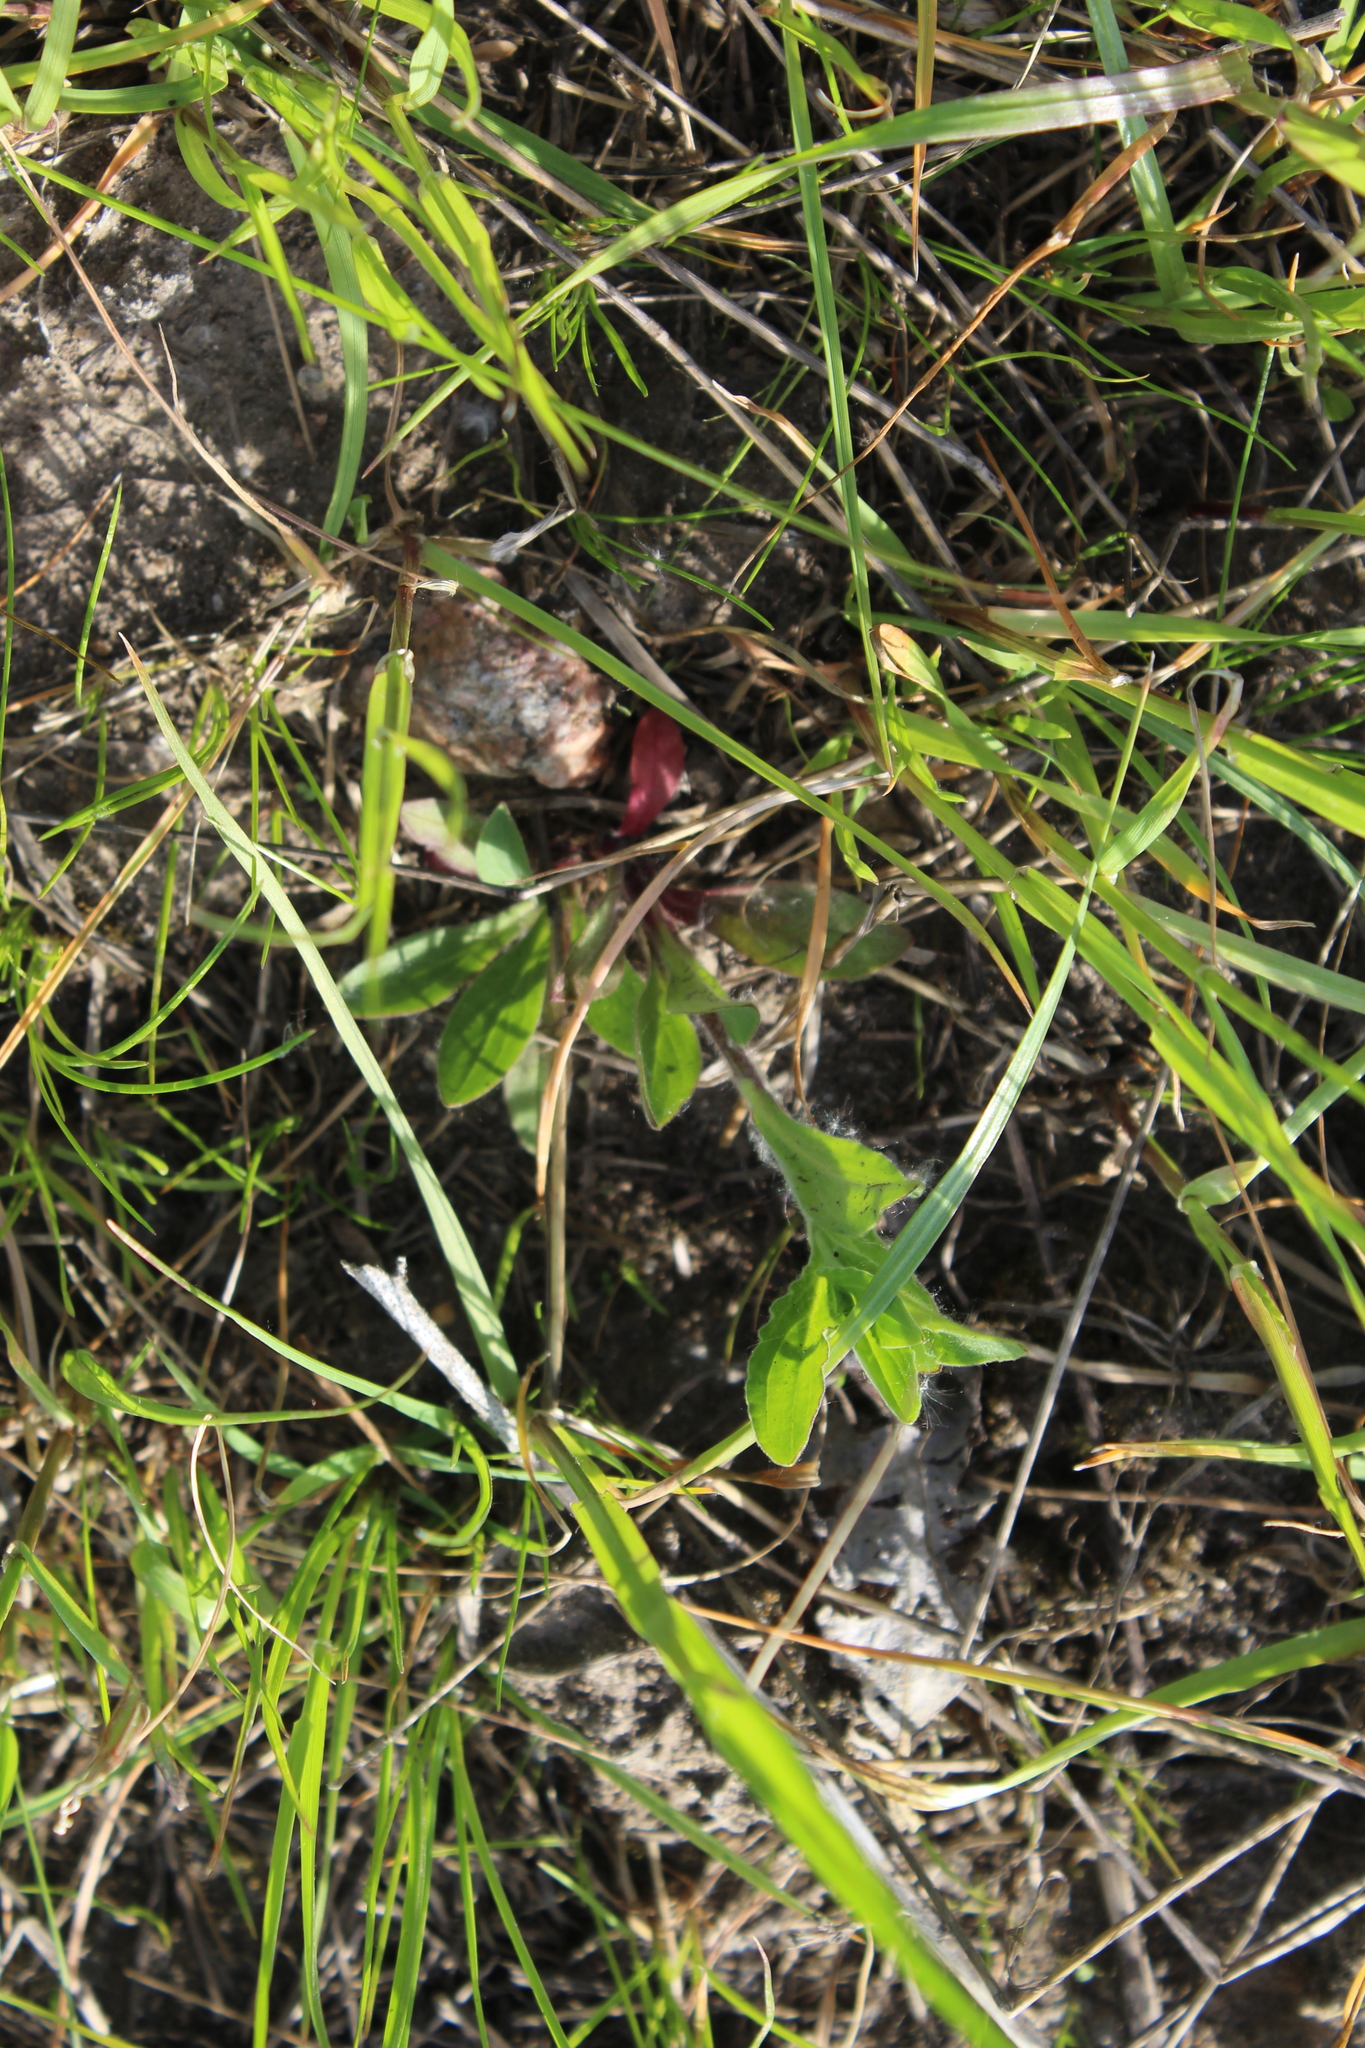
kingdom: Plantae
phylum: Tracheophyta
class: Magnoliopsida
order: Caryophyllales
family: Caryophyllaceae
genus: Silene
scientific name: Silene latifolia
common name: White campion
